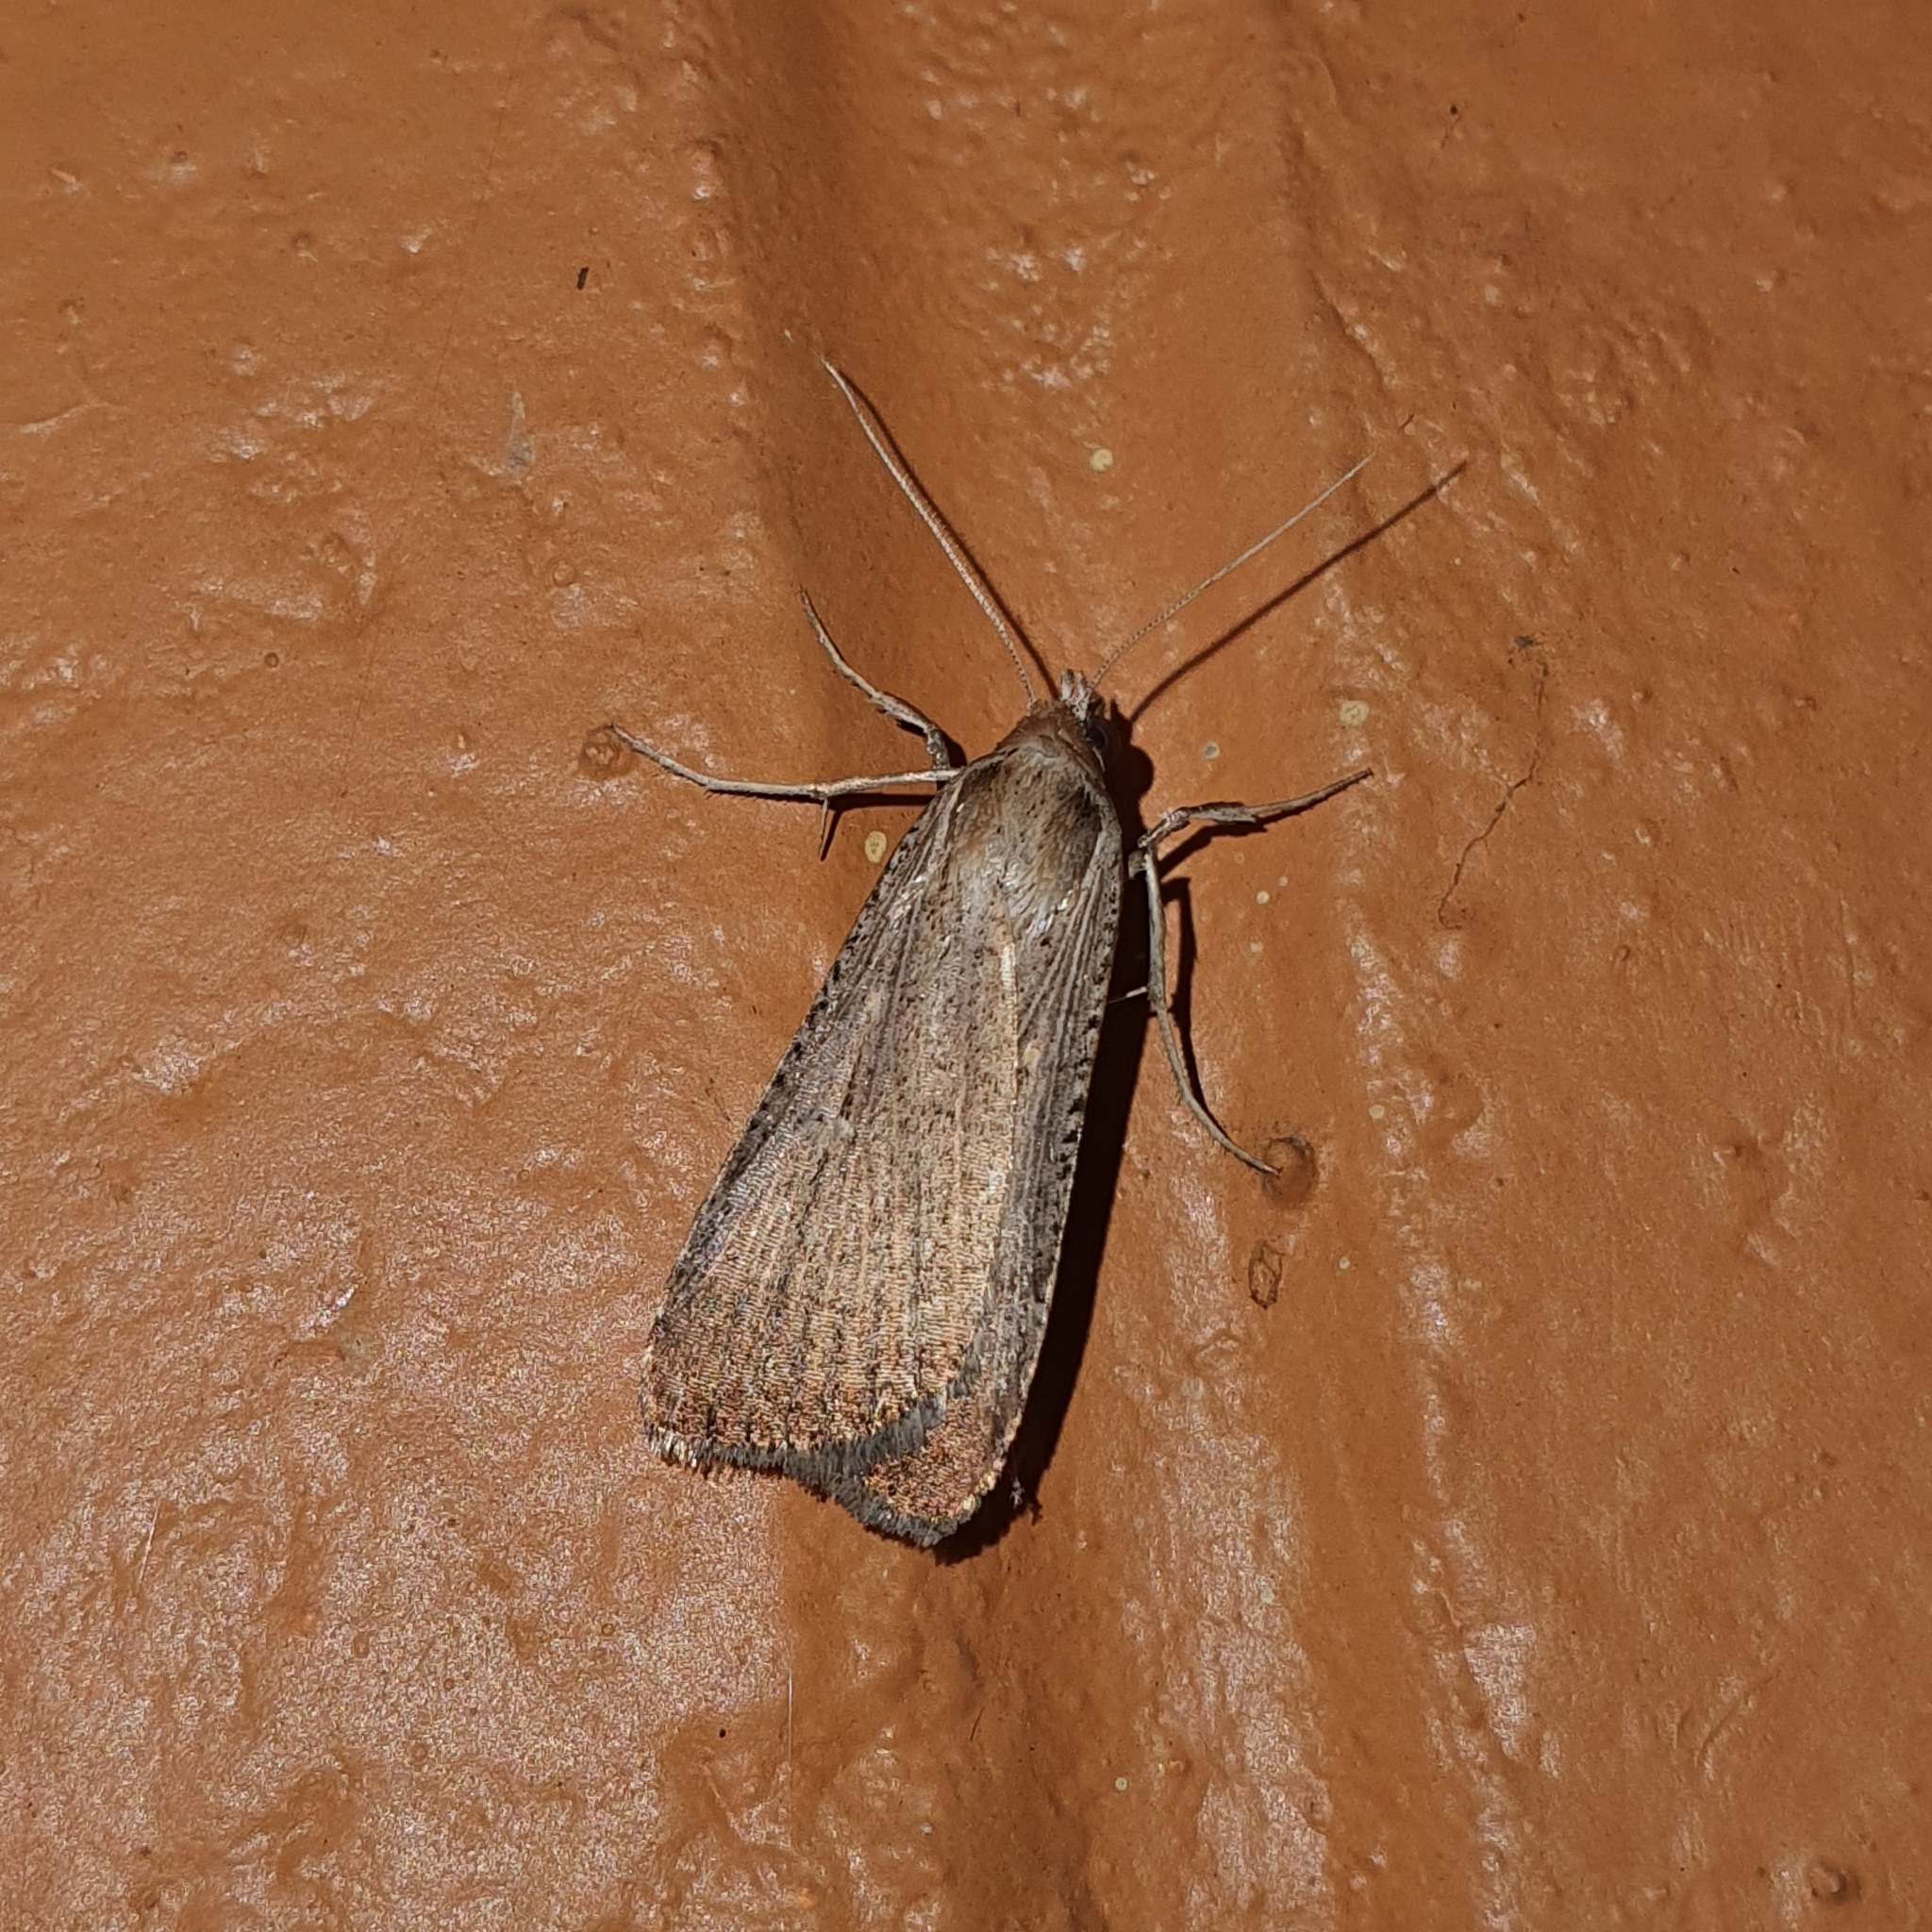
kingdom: Animalia
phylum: Arthropoda
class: Insecta
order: Lepidoptera
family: Noctuidae
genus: Tathorhynchus
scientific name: Tathorhynchus fallax
